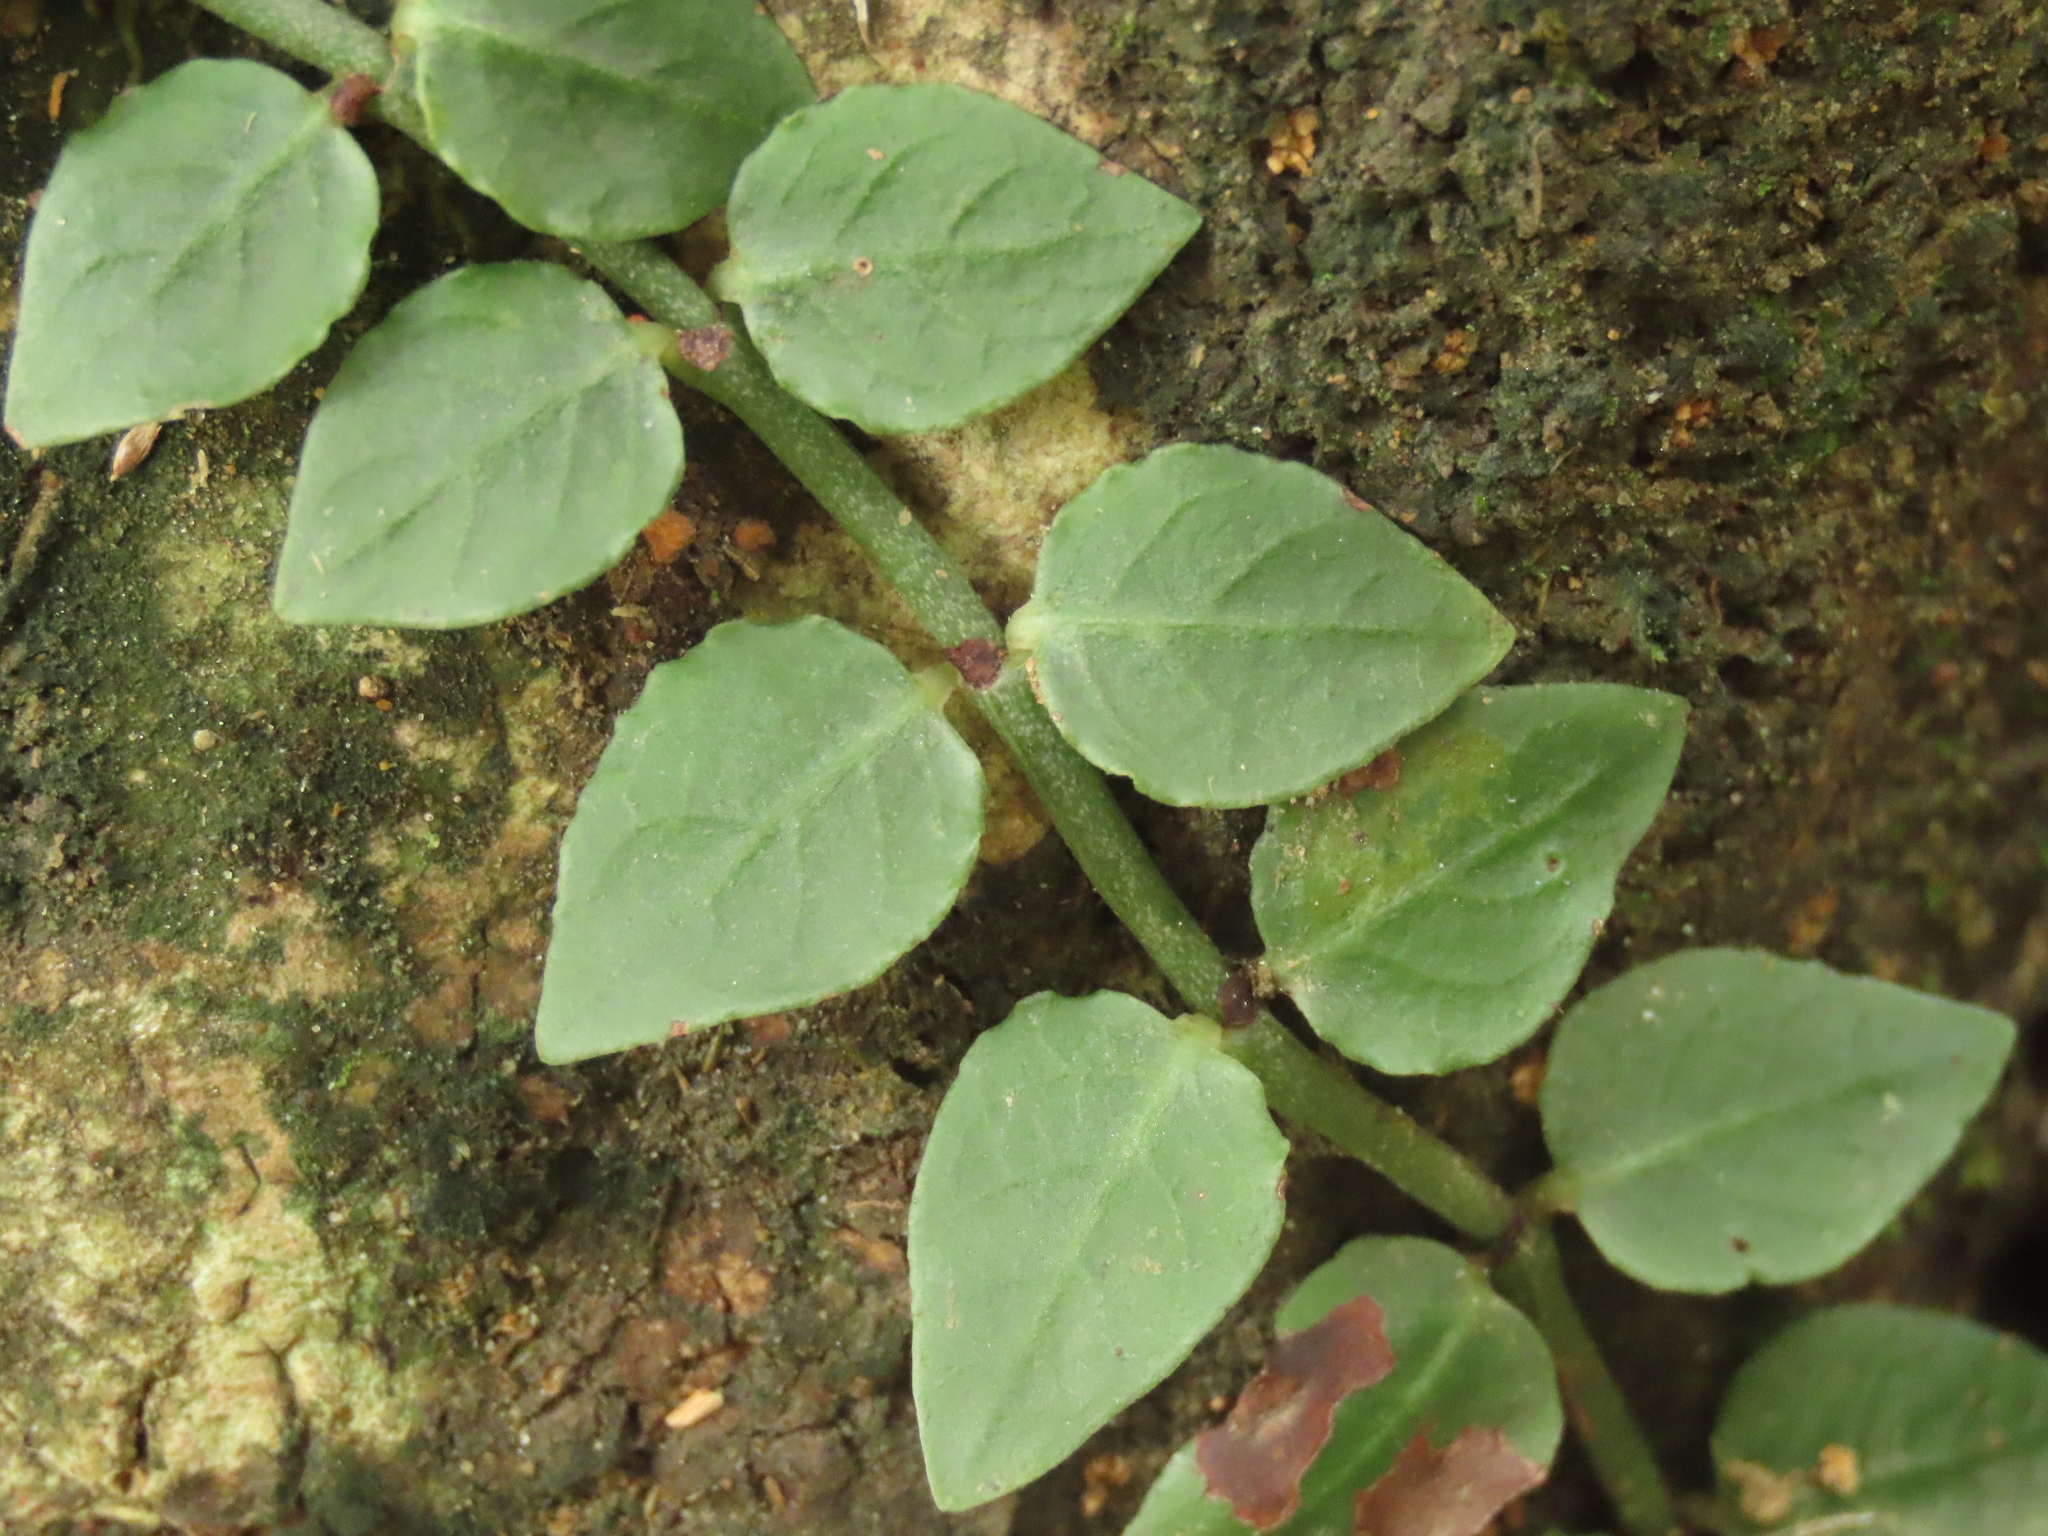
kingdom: Plantae
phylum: Tracheophyta
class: Magnoliopsida
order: Gentianales
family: Rubiaceae
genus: Psychotria
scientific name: Psychotria serpens
